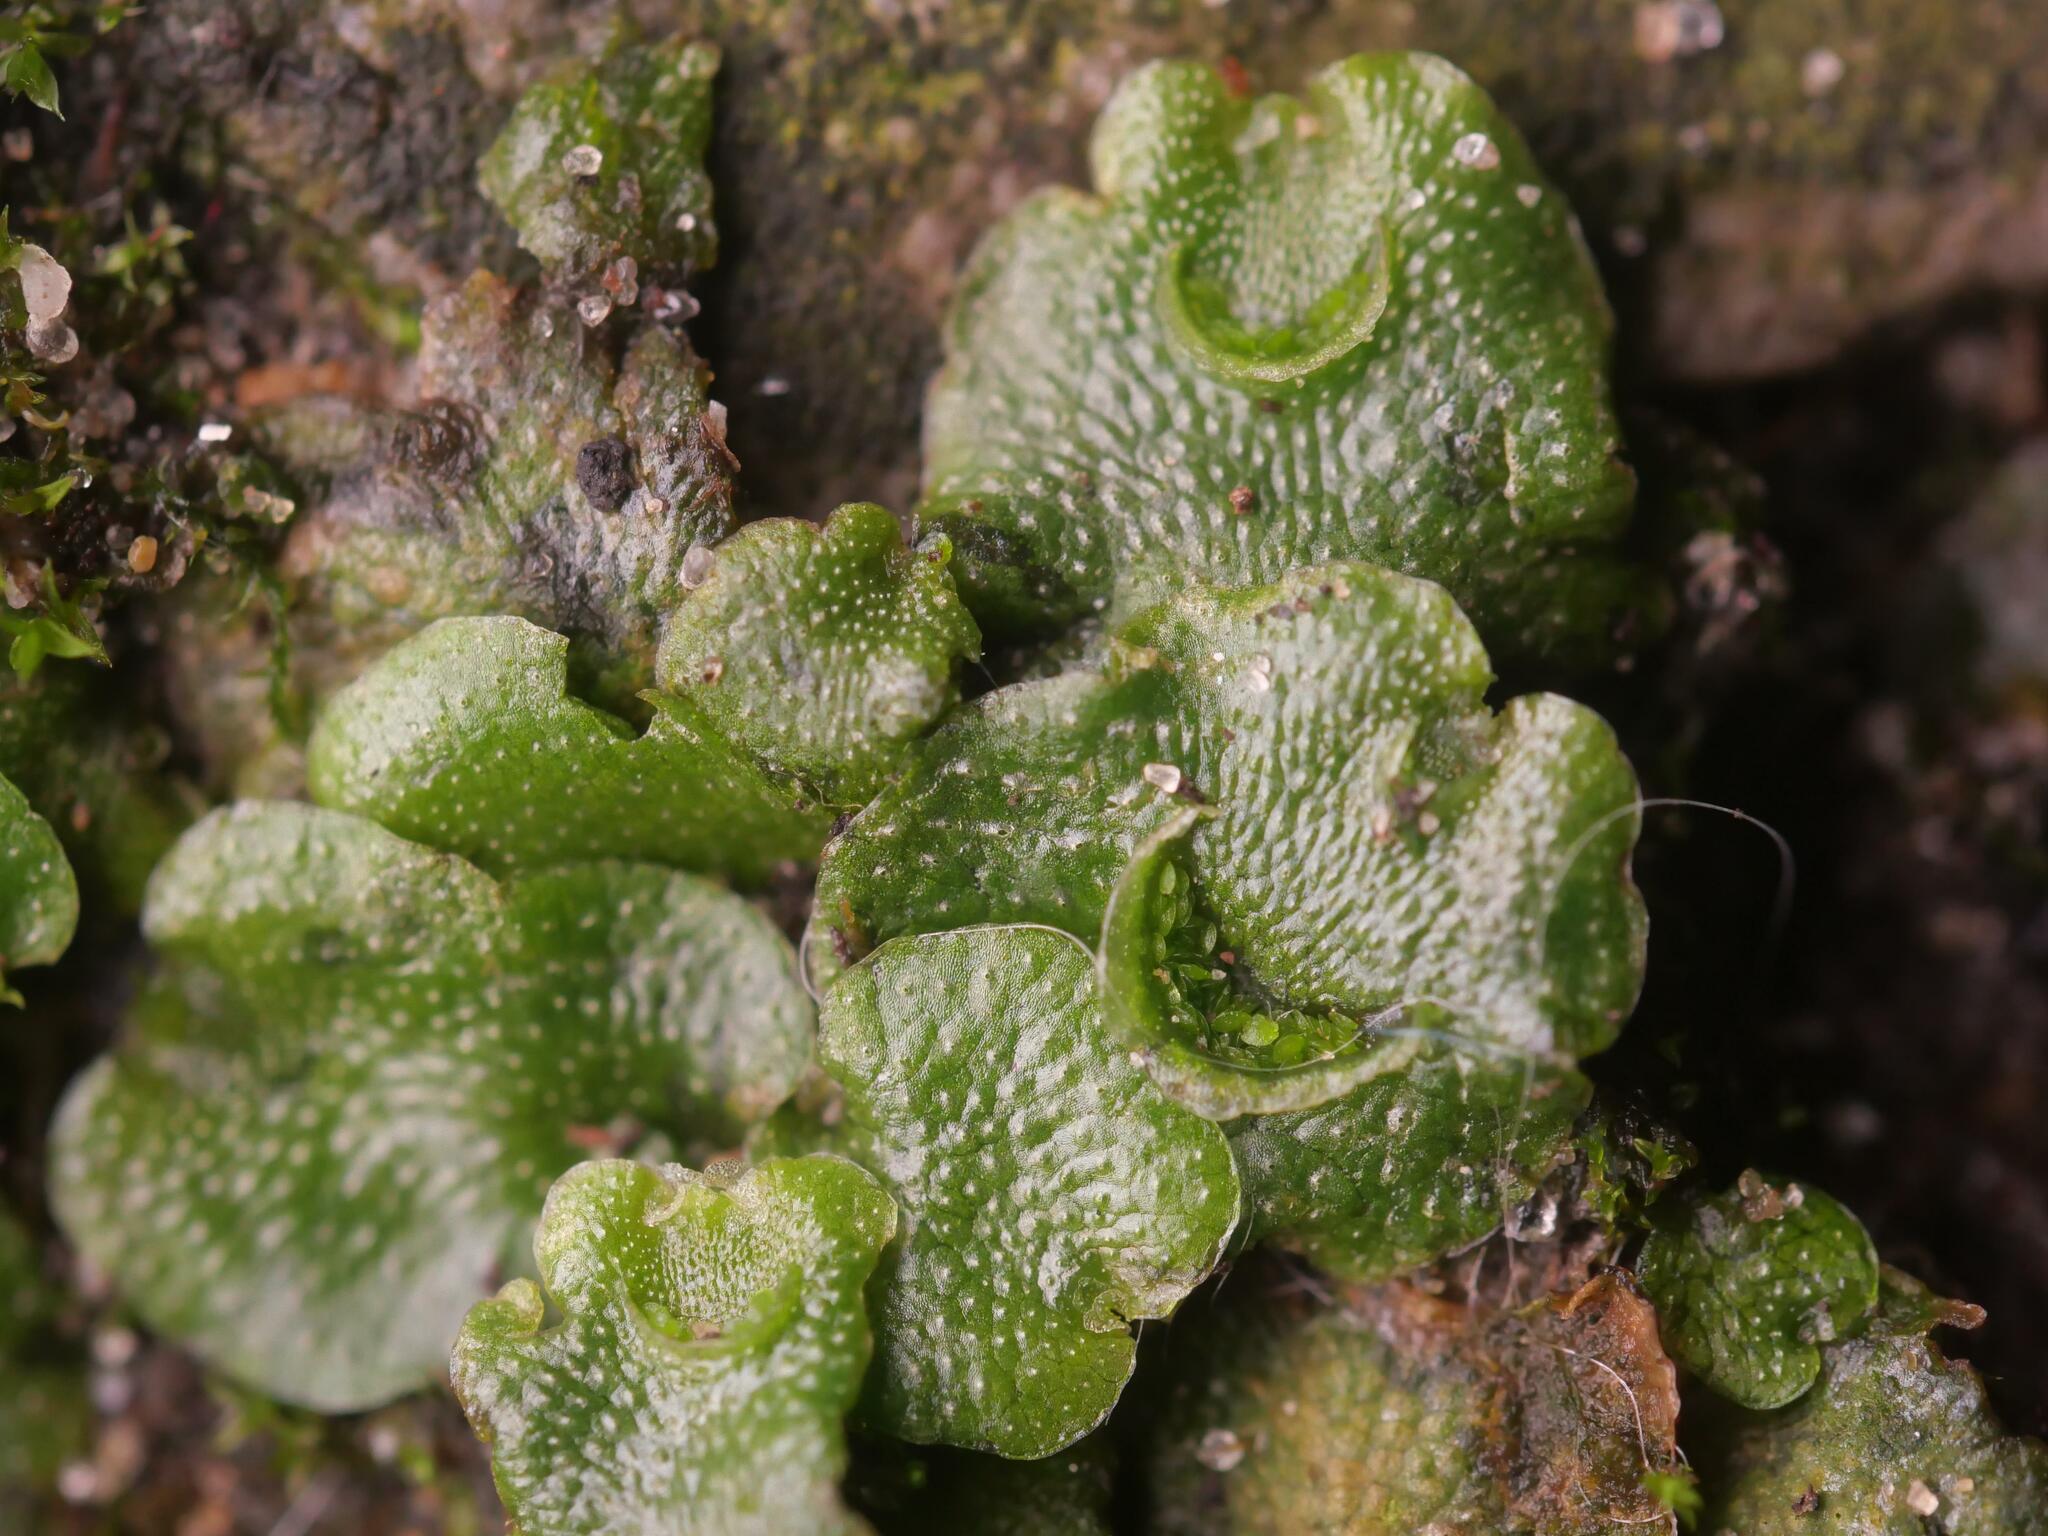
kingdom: Plantae
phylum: Marchantiophyta
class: Marchantiopsida
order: Lunulariales
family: Lunulariaceae
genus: Lunularia
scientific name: Lunularia cruciata
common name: Crescent-cup liverwort
